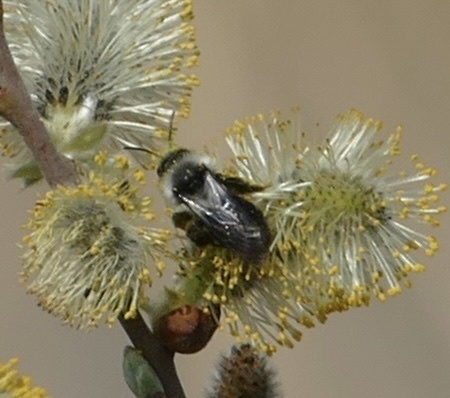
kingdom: Animalia
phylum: Arthropoda
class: Insecta
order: Hymenoptera
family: Andrenidae
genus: Andrena
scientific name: Andrena cineraria
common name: Ashy mining bee
